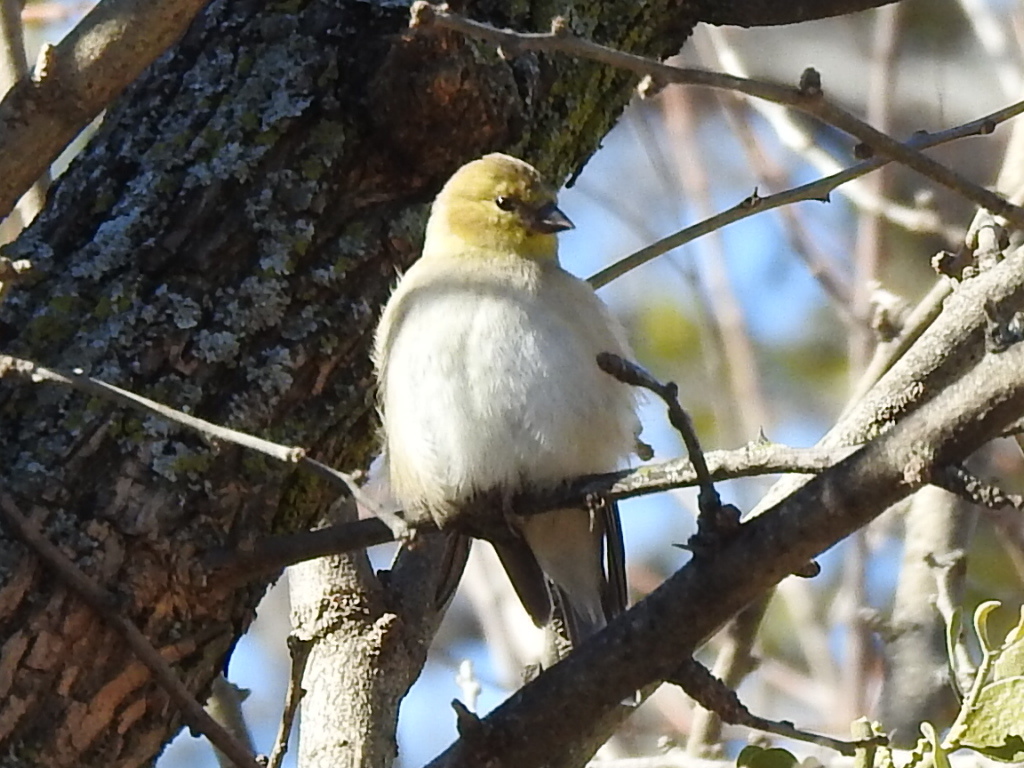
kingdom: Animalia
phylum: Chordata
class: Aves
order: Passeriformes
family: Fringillidae
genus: Spinus
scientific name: Spinus tristis
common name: American goldfinch
